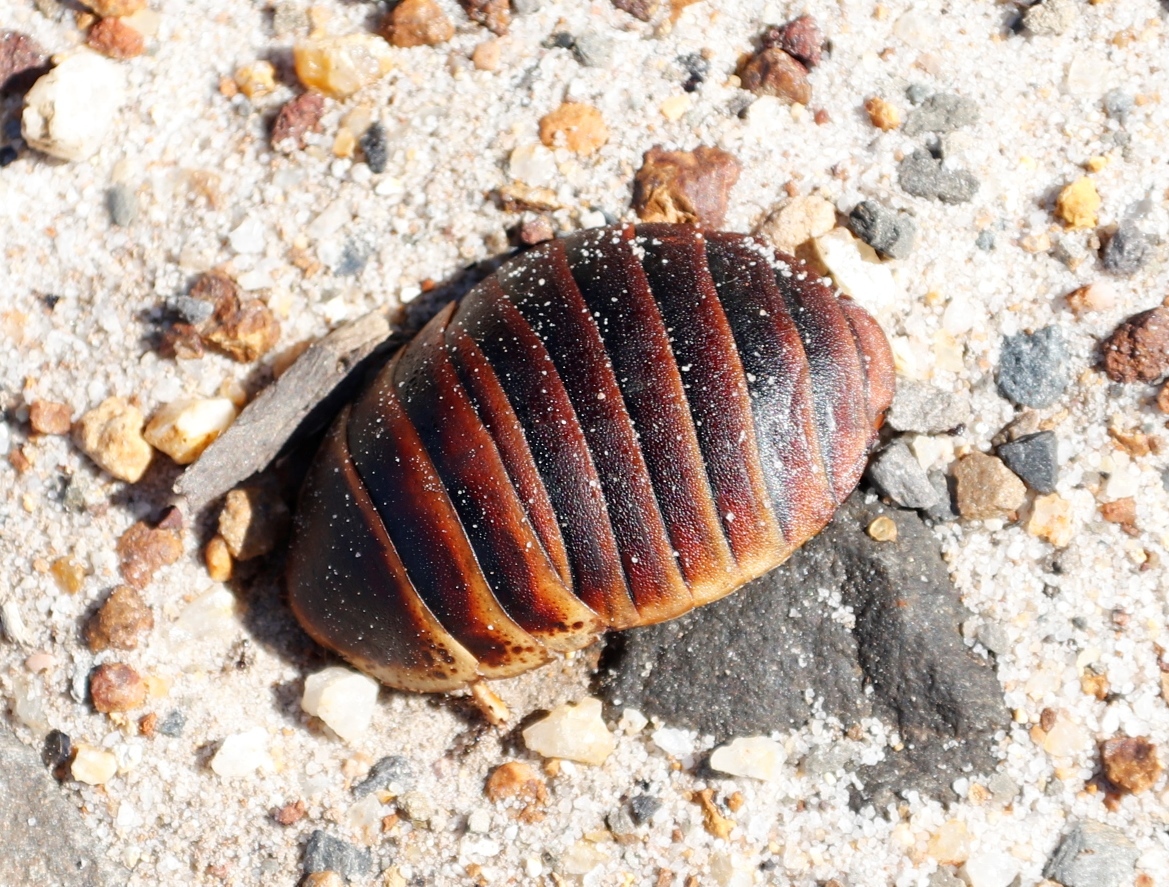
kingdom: Animalia
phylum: Arthropoda
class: Insecta
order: Blattodea
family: Blaberidae
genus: Aptera
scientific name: Aptera fusca
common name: Cape mountain cockroach
